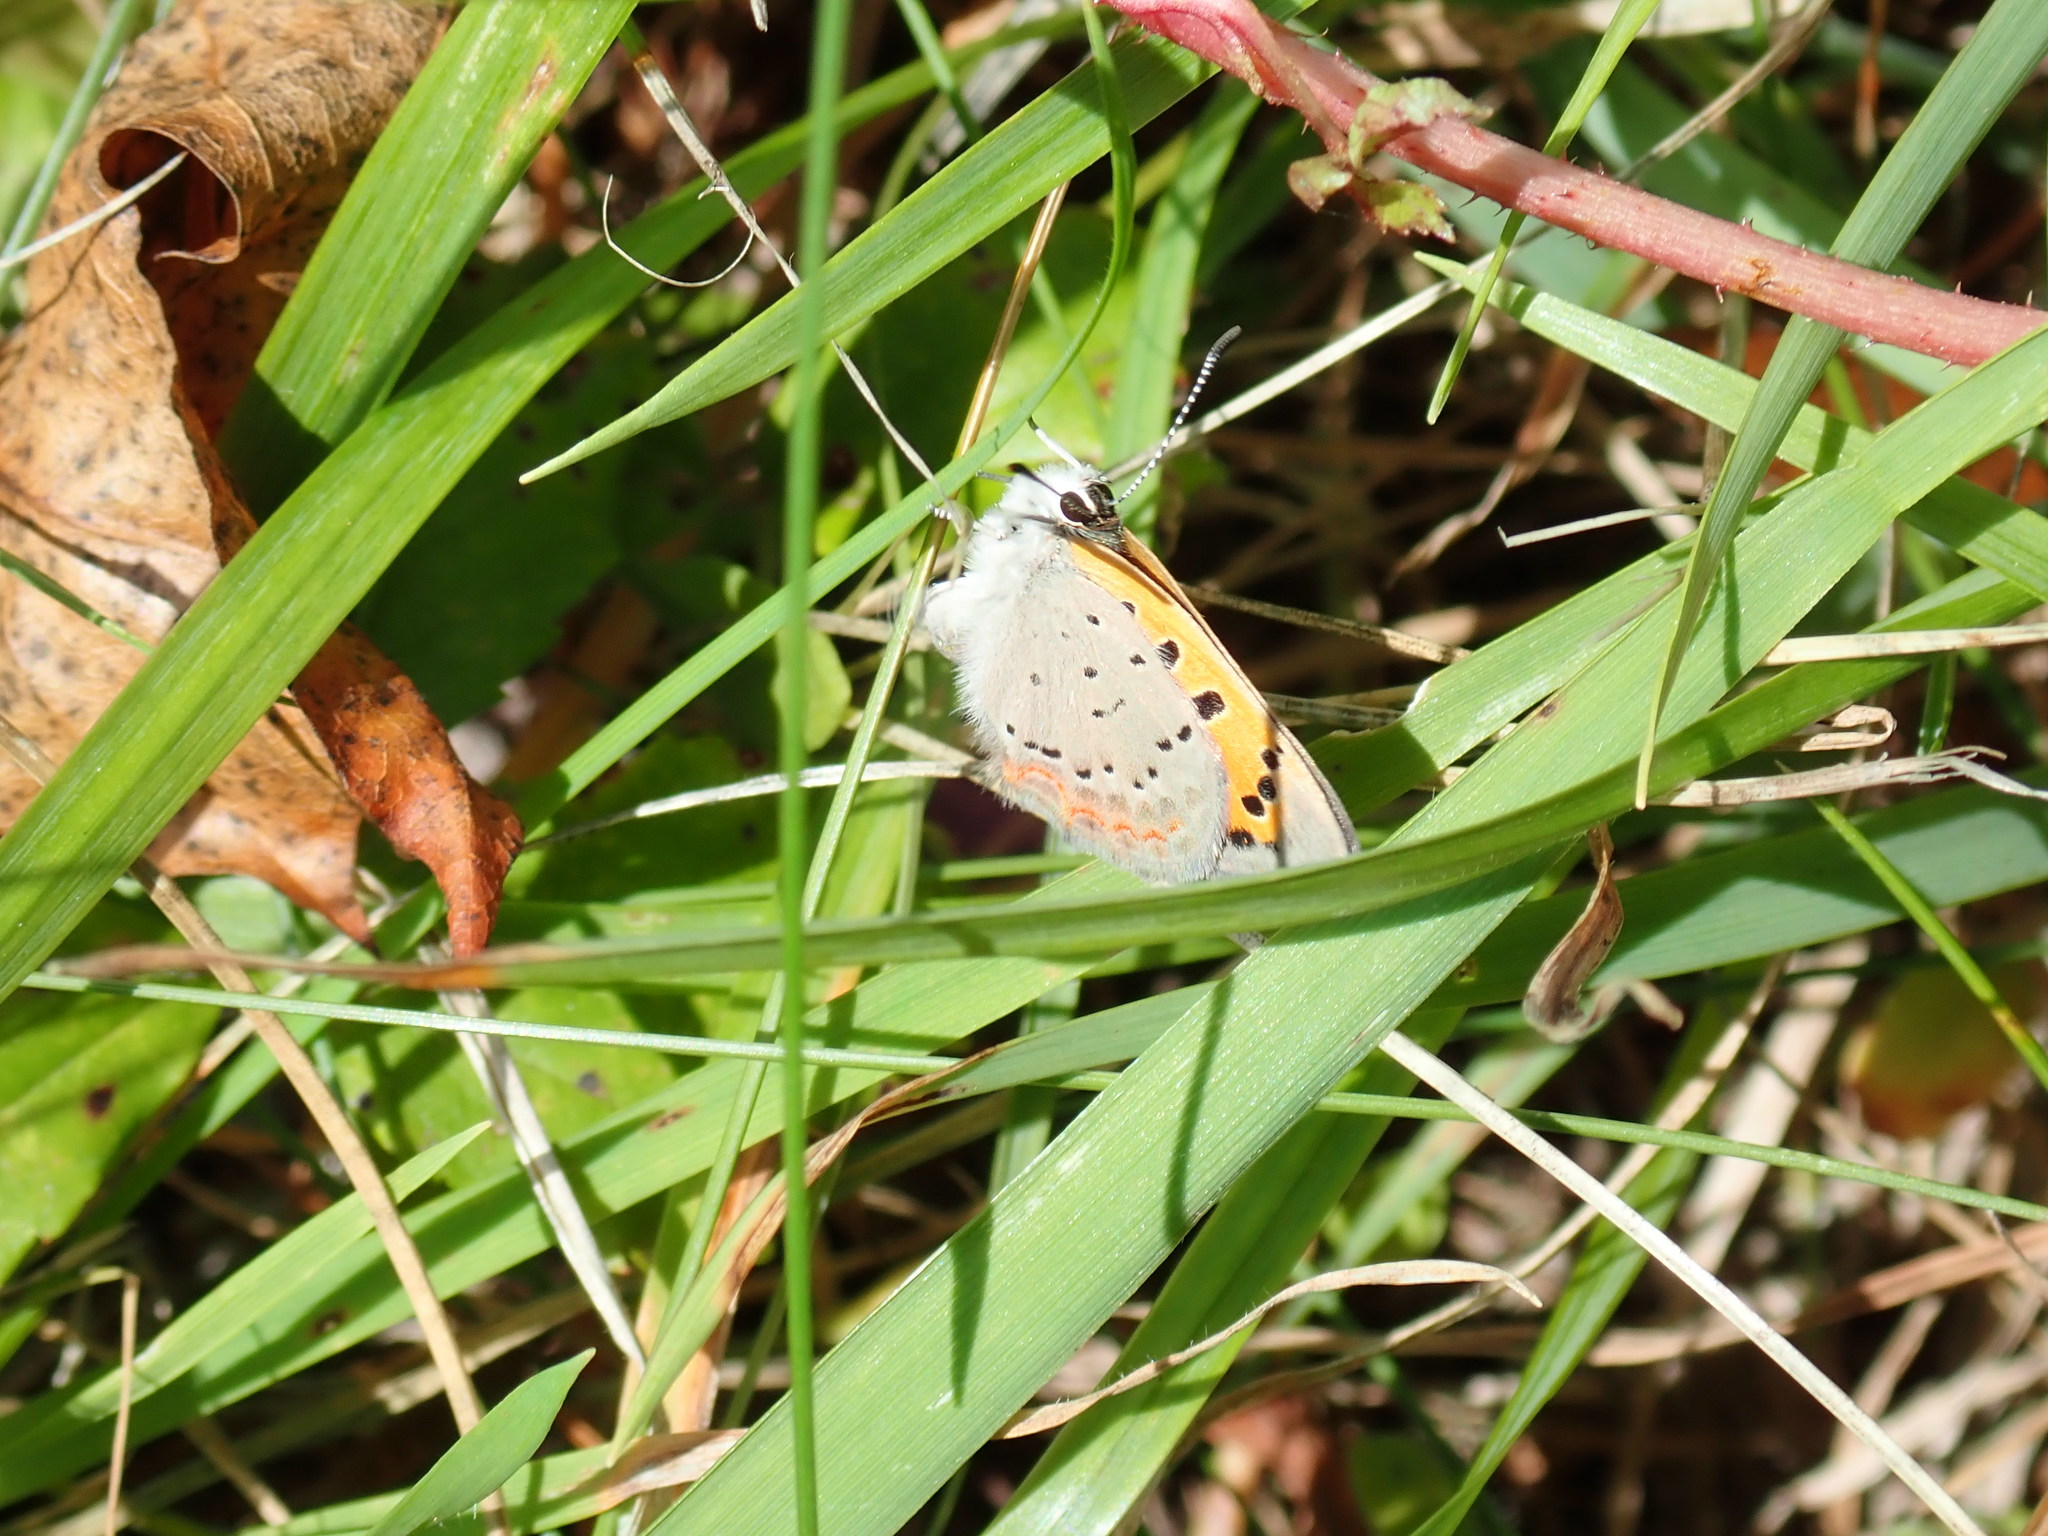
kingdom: Animalia
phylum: Arthropoda
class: Insecta
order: Lepidoptera
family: Lycaenidae
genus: Lycaena
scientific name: Lycaena hypophlaeas
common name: American copper
